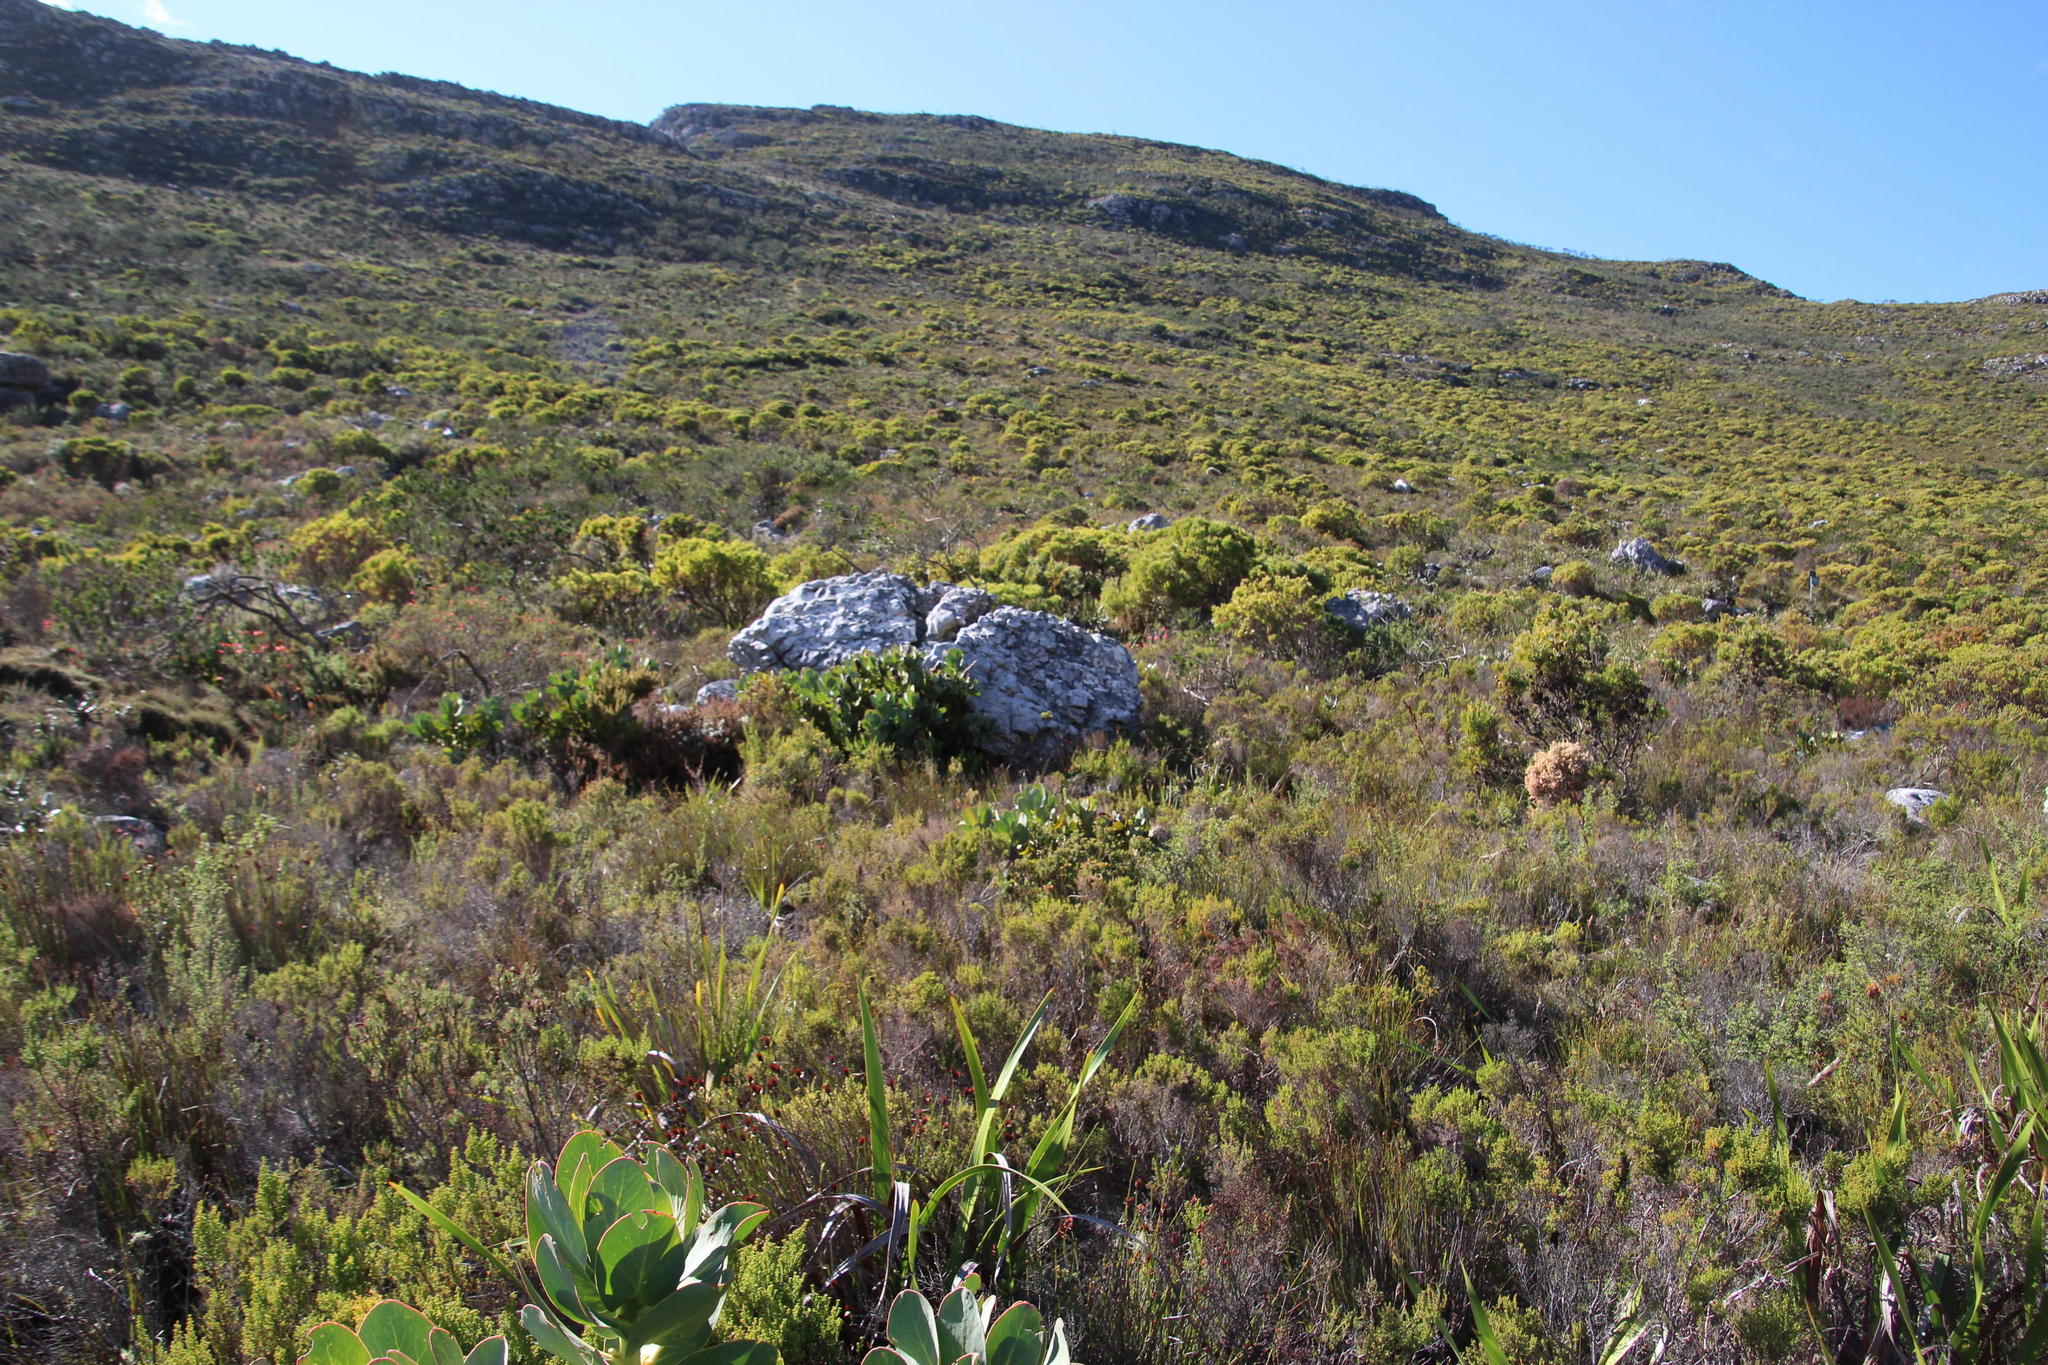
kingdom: Plantae
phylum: Tracheophyta
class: Magnoliopsida
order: Proteales
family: Proteaceae
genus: Protea
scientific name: Protea grandiceps
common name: Red sugarbush
